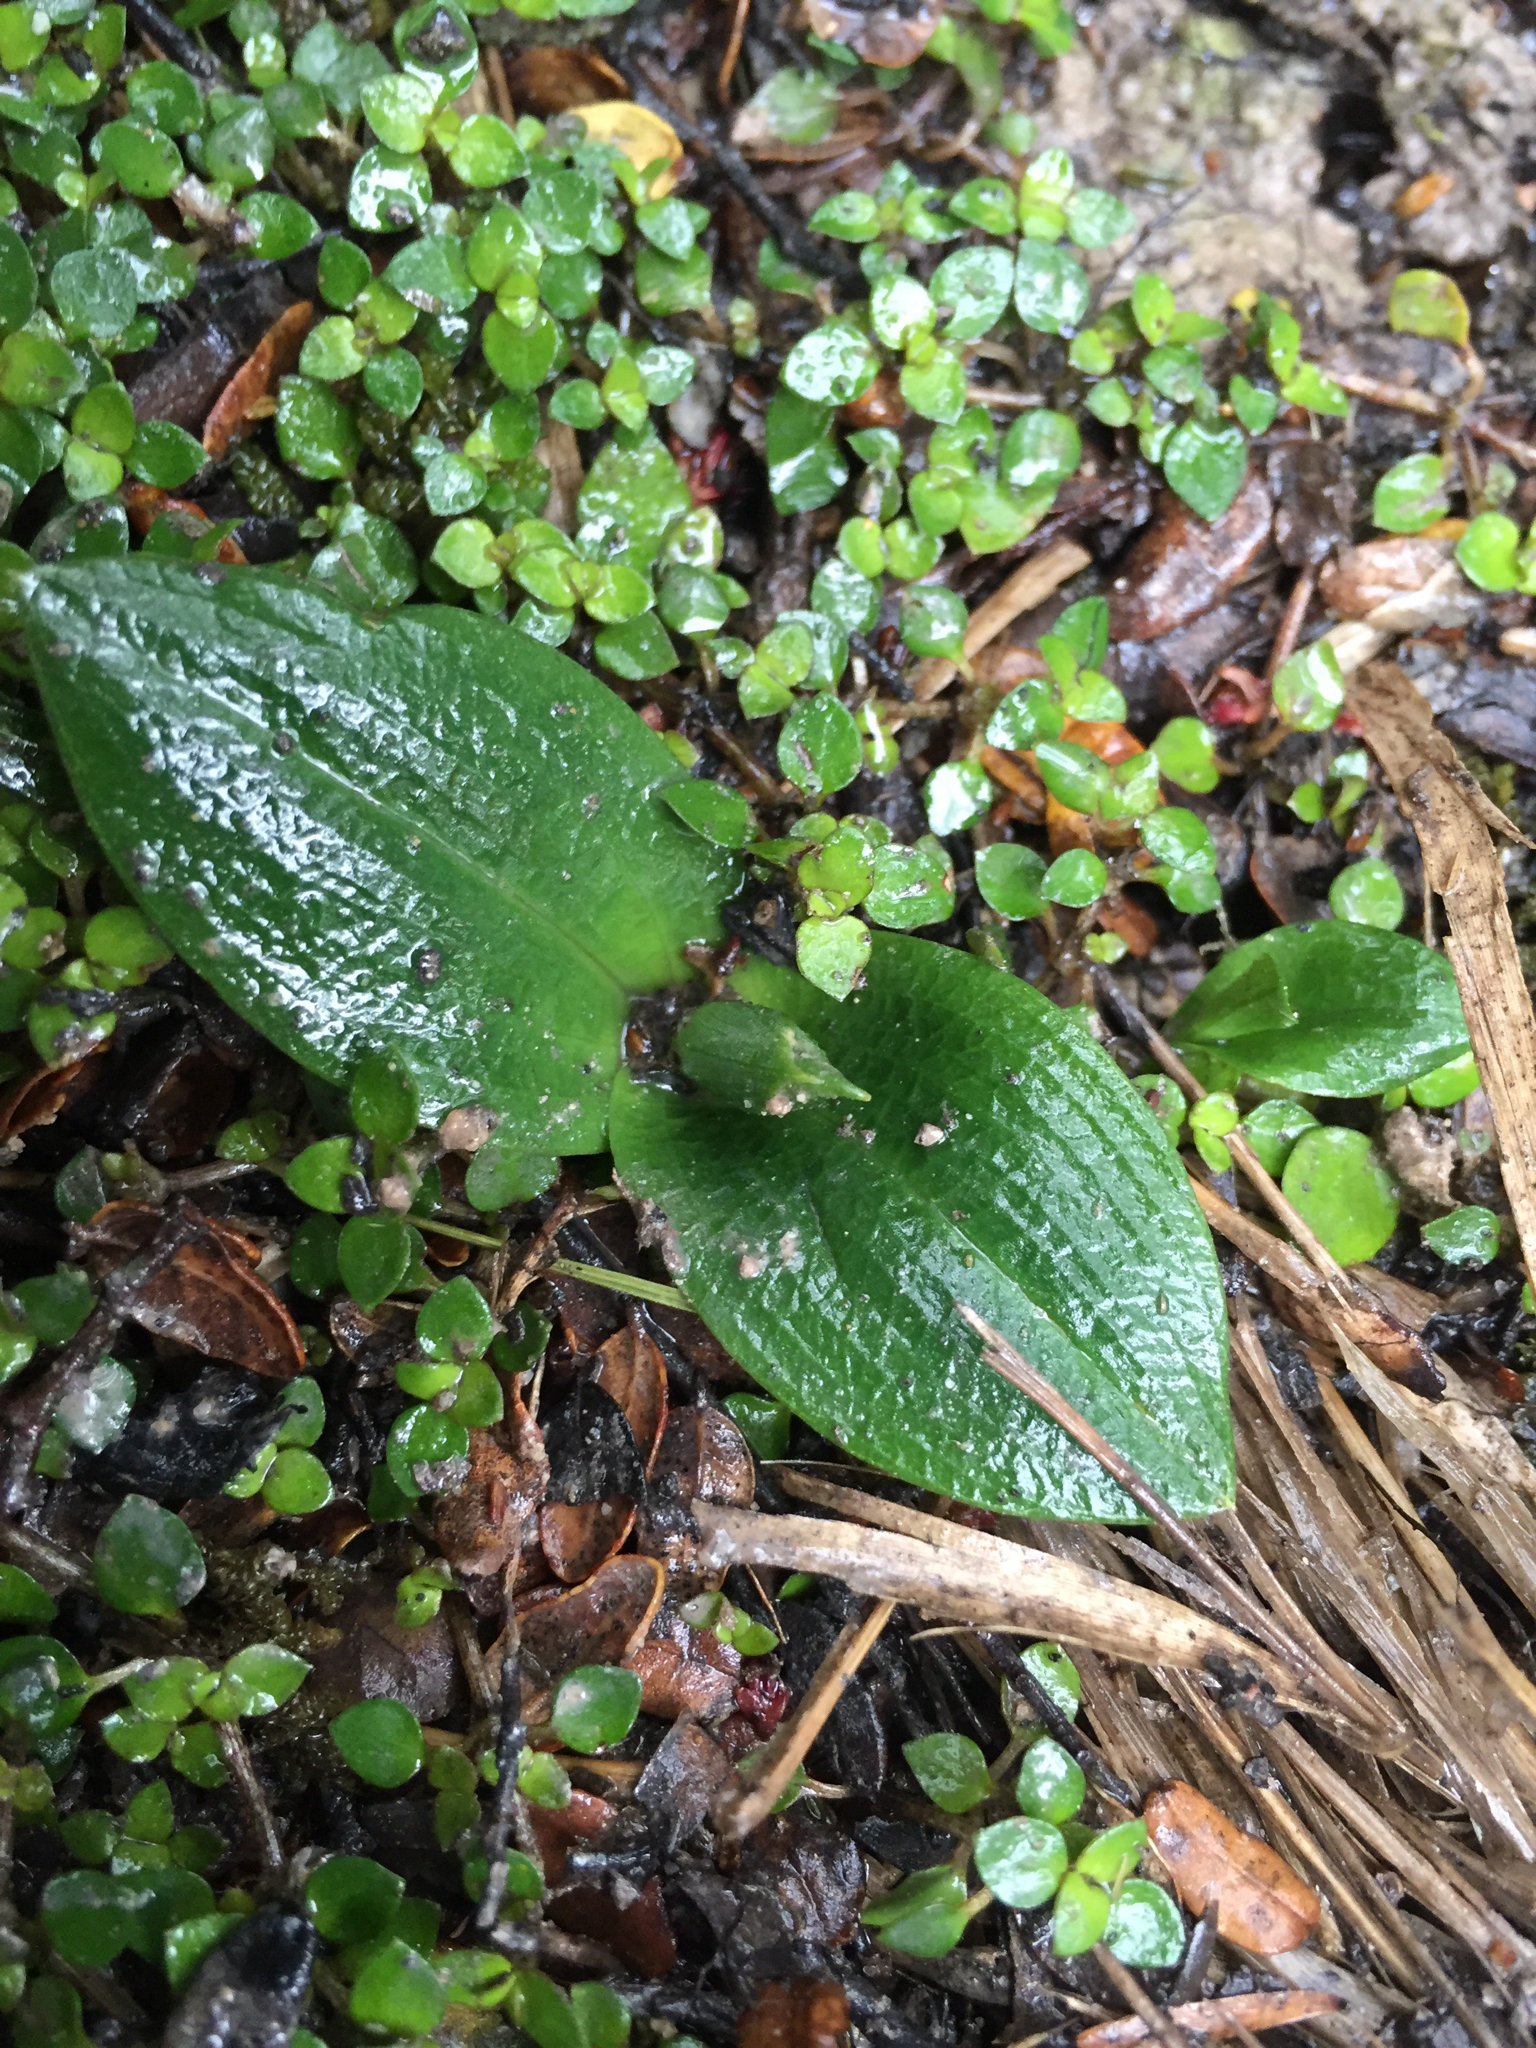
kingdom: Plantae
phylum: Tracheophyta
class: Liliopsida
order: Asparagales
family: Orchidaceae
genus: Chiloglottis
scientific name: Chiloglottis cornuta
